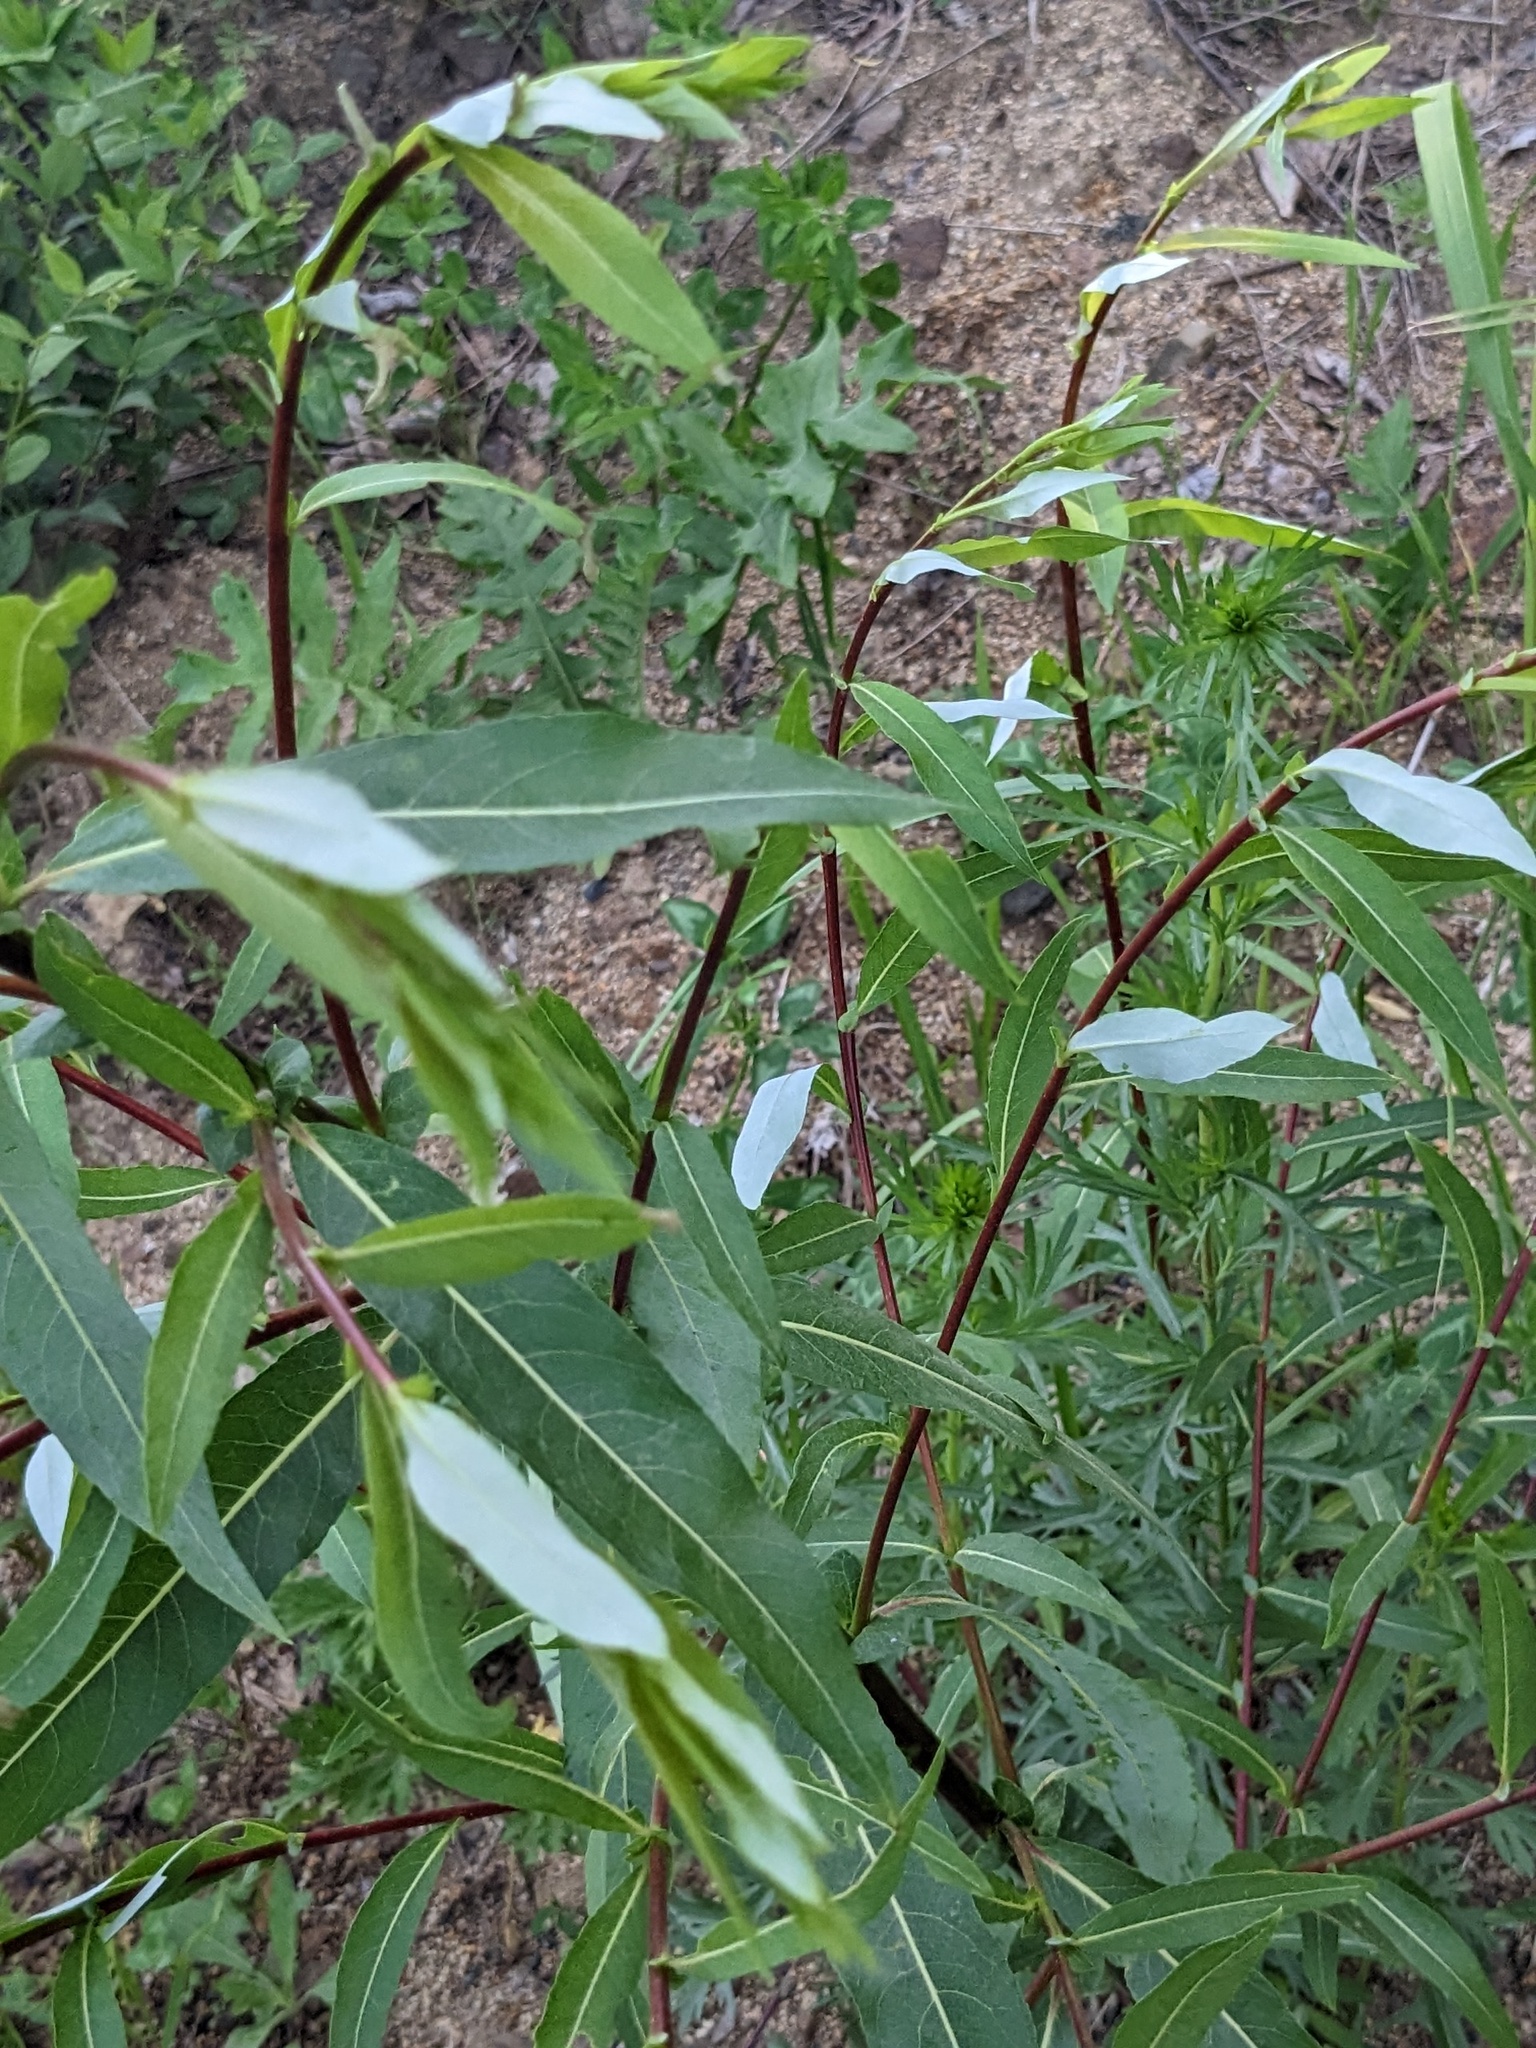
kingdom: Plantae
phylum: Tracheophyta
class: Magnoliopsida
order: Malpighiales
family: Salicaceae
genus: Salix
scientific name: Salix rorida
